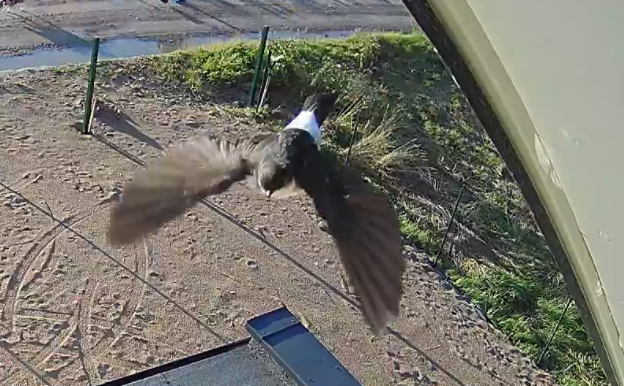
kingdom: Animalia
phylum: Chordata
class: Aves
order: Passeriformes
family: Hirundinidae
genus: Delichon
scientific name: Delichon urbicum
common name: Common house martin
